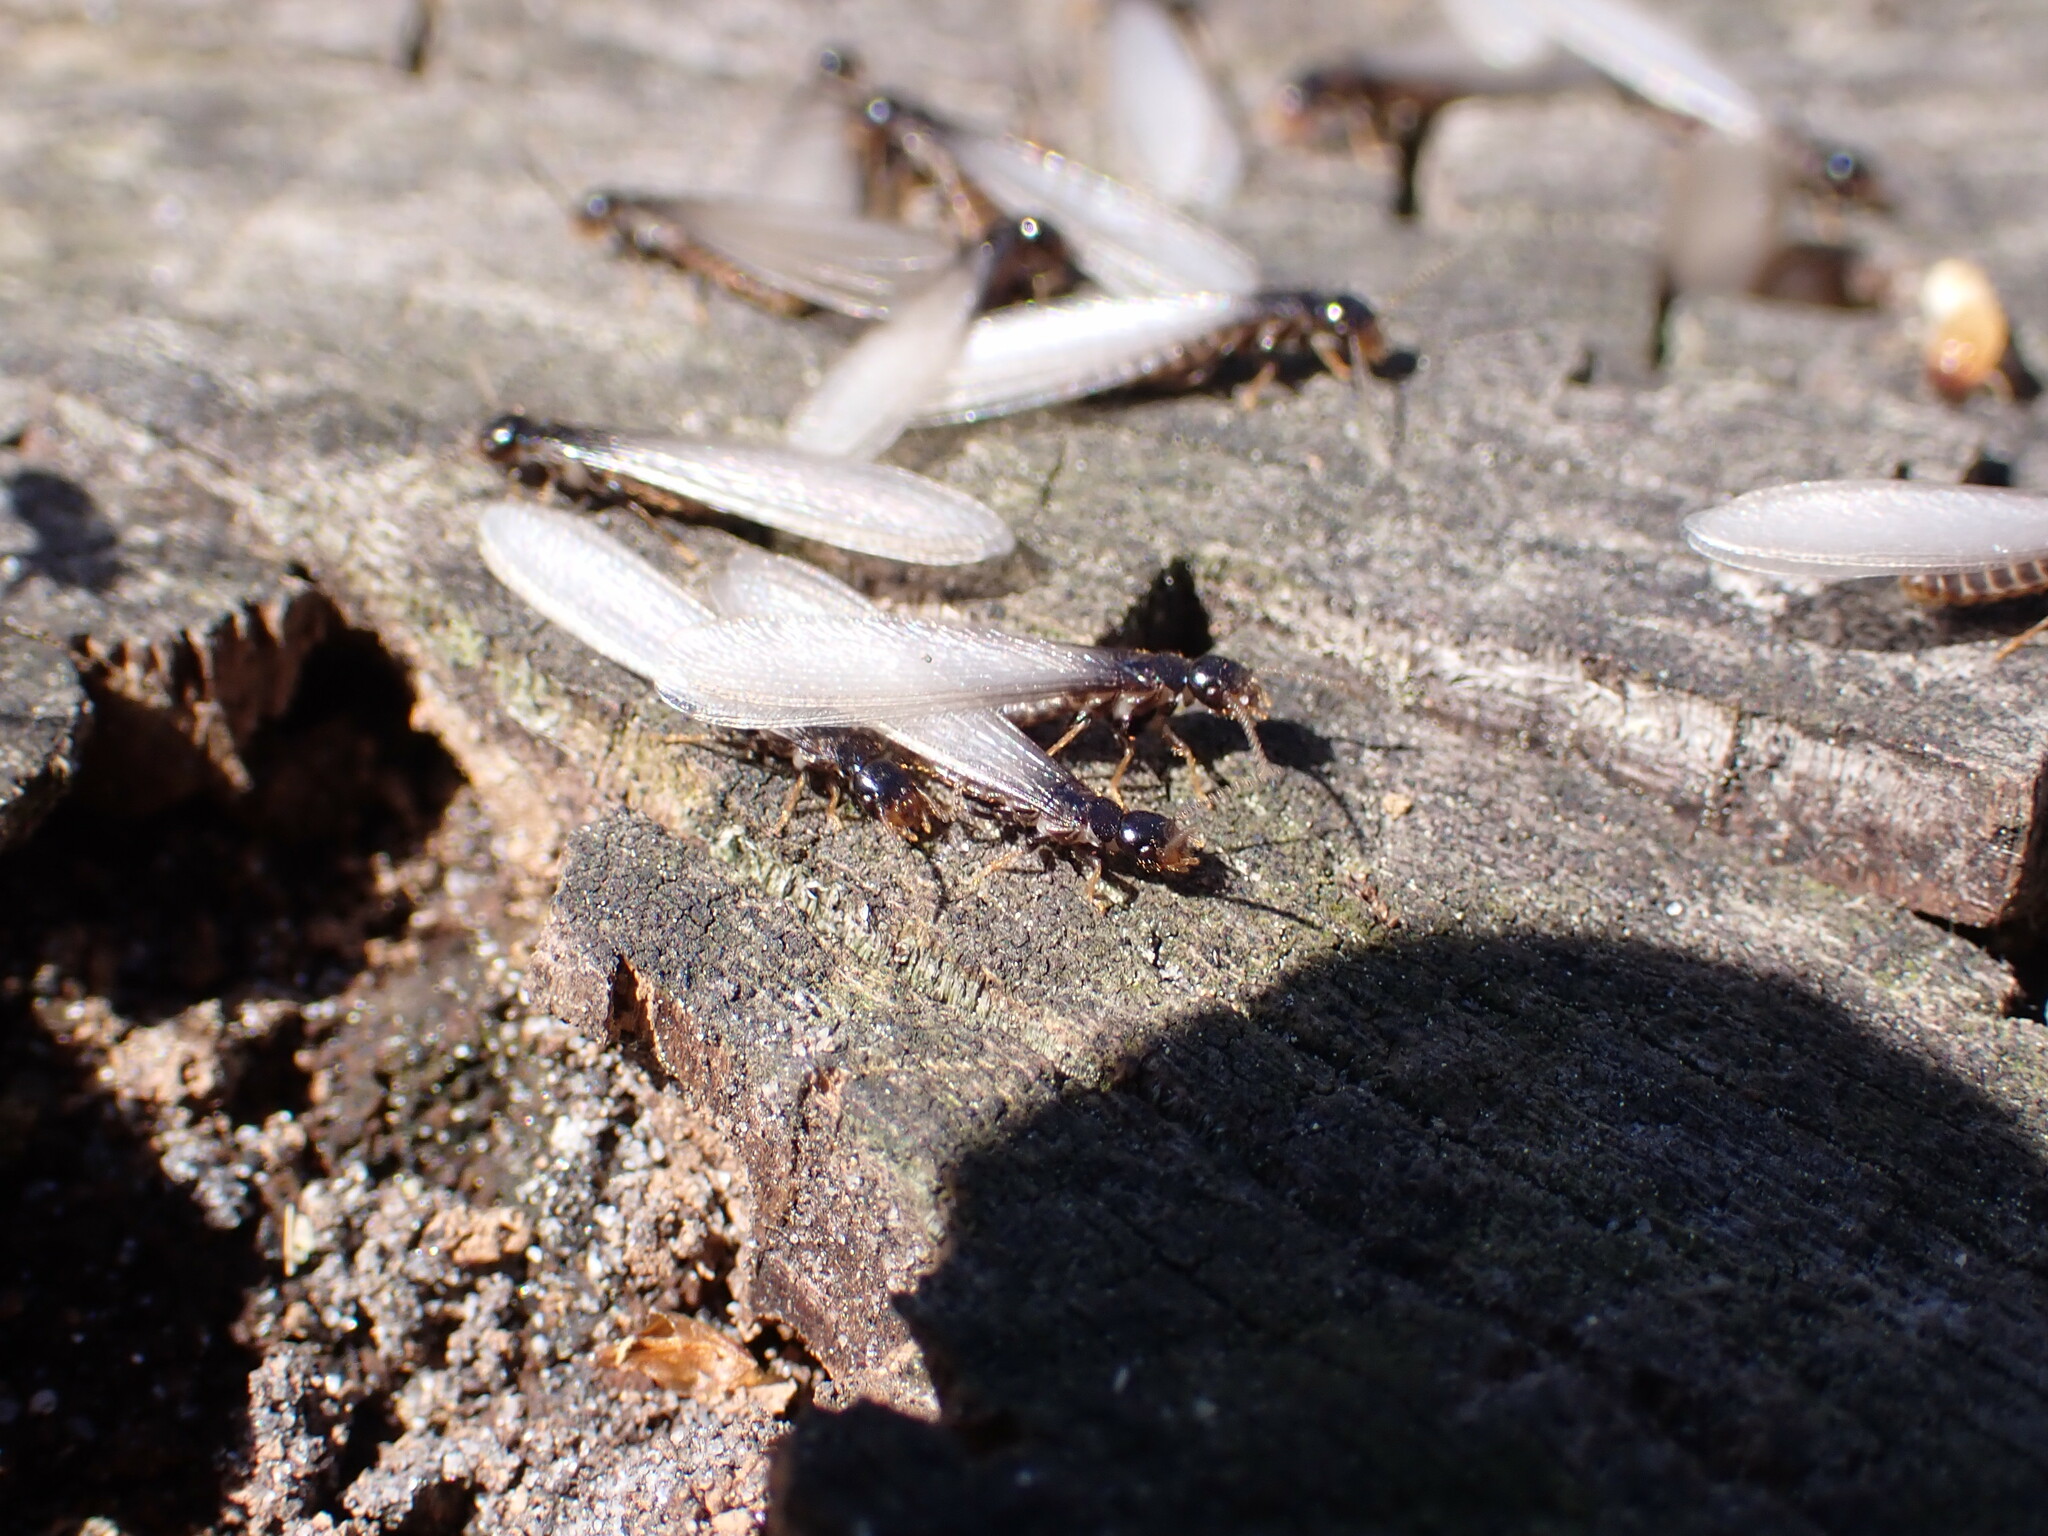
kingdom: Animalia
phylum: Arthropoda
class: Insecta
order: Blattodea
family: Rhinotermitidae
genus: Reticulitermes
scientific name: Reticulitermes flavipes
